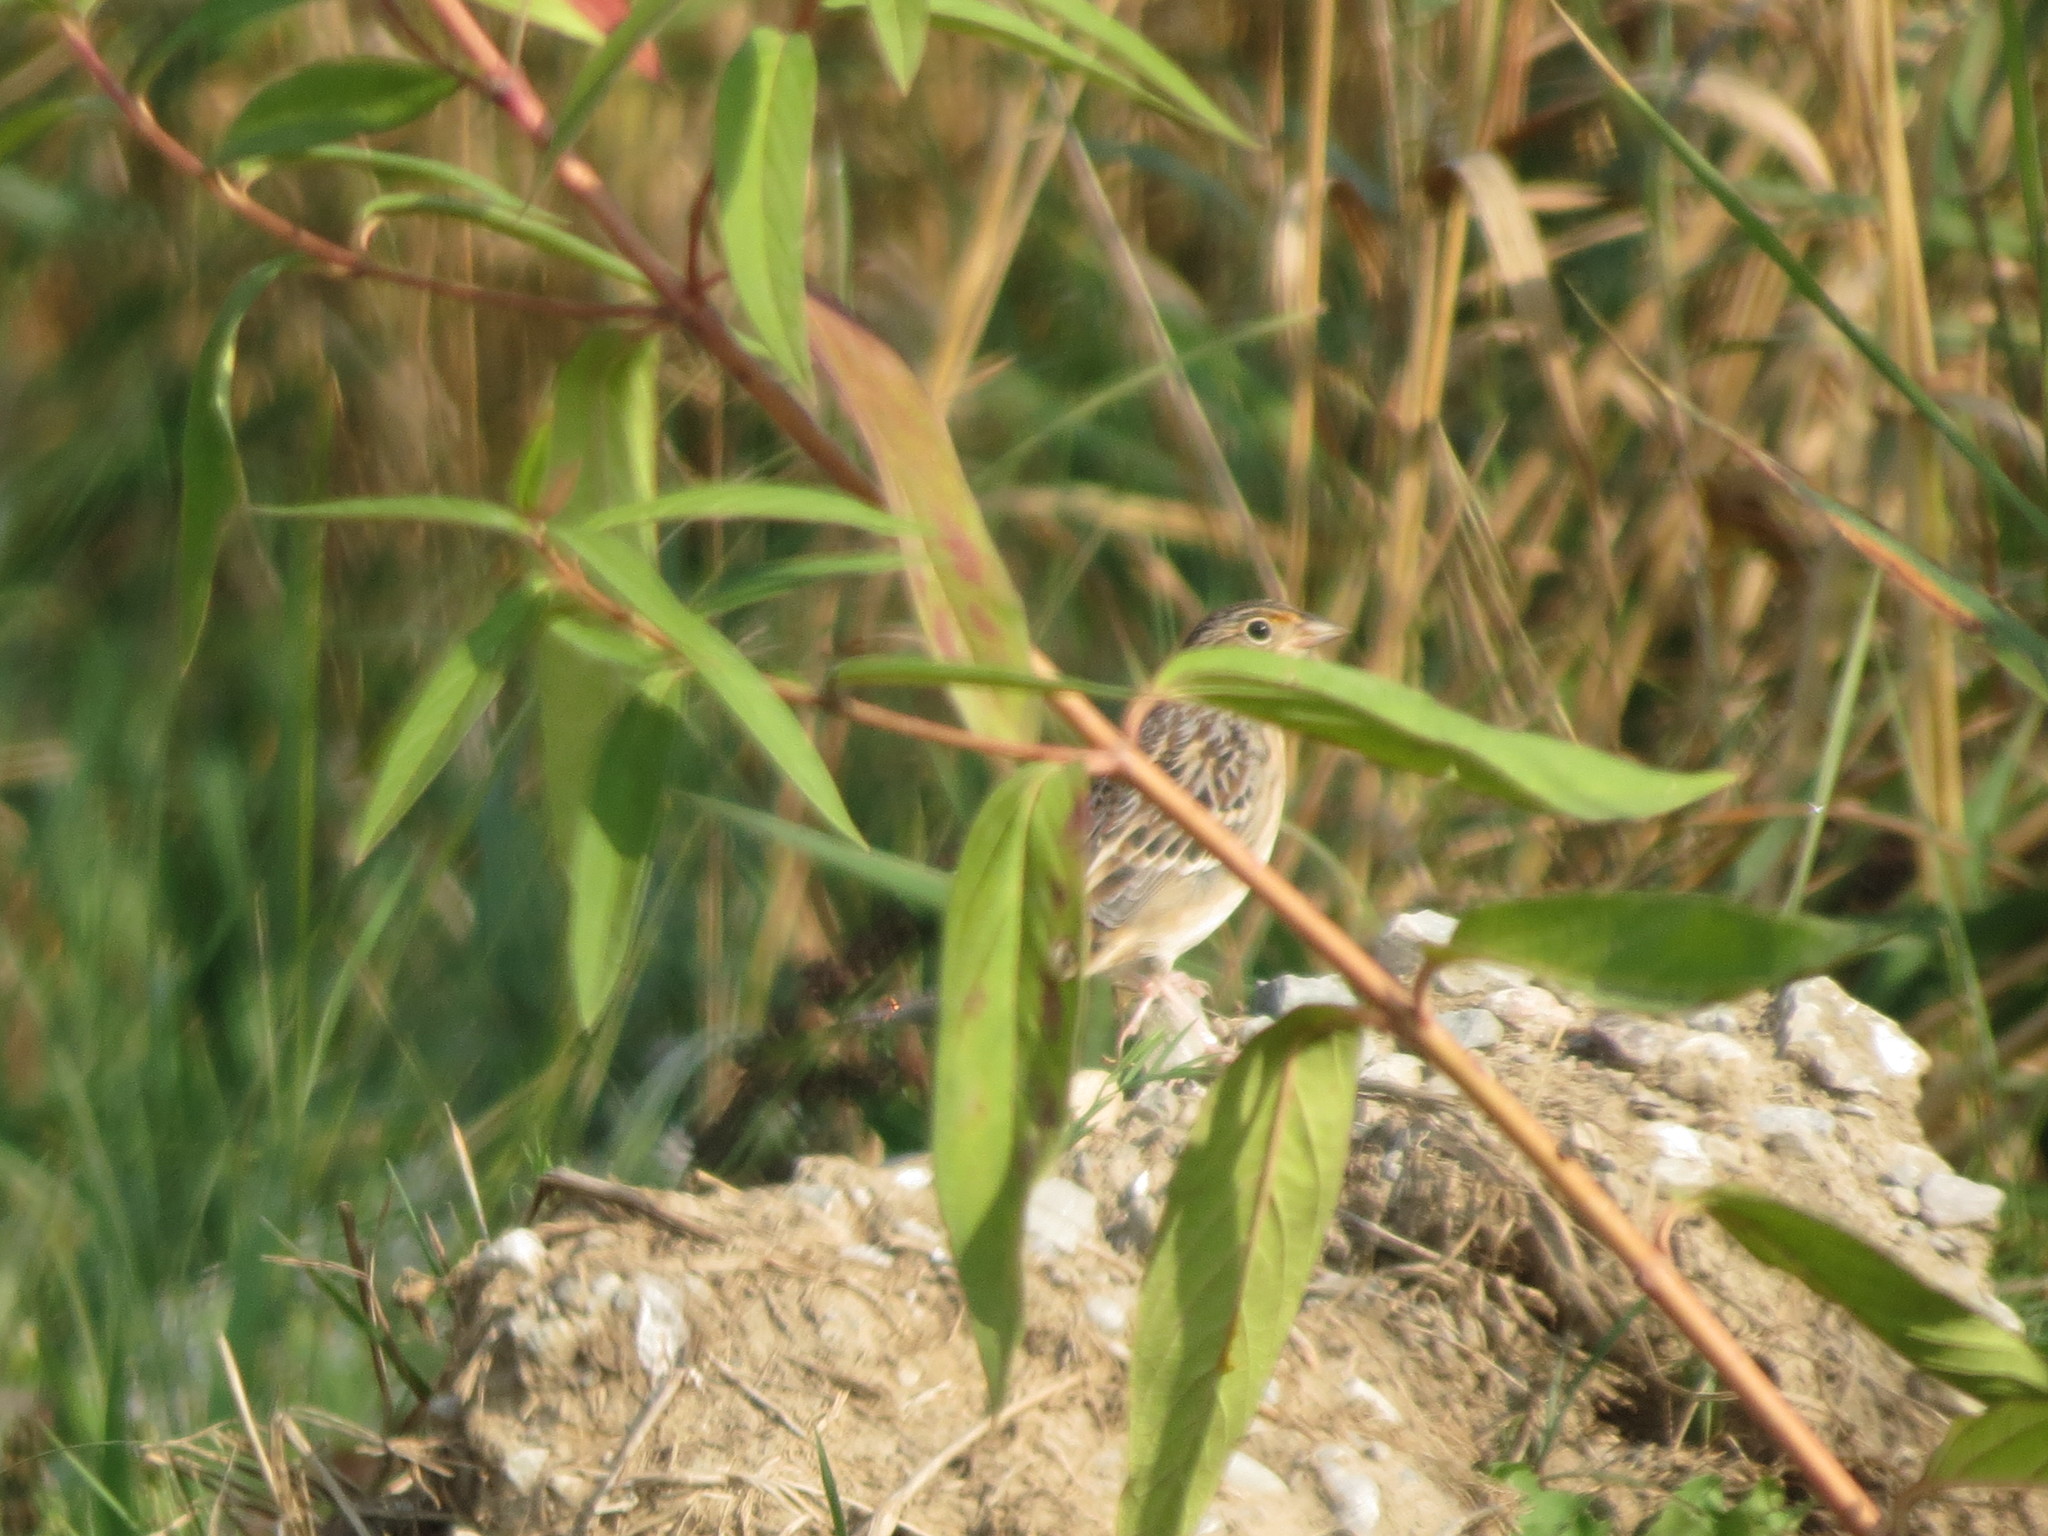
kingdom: Animalia
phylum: Chordata
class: Aves
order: Passeriformes
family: Passerellidae
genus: Ammodramus
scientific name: Ammodramus savannarum
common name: Grasshopper sparrow
